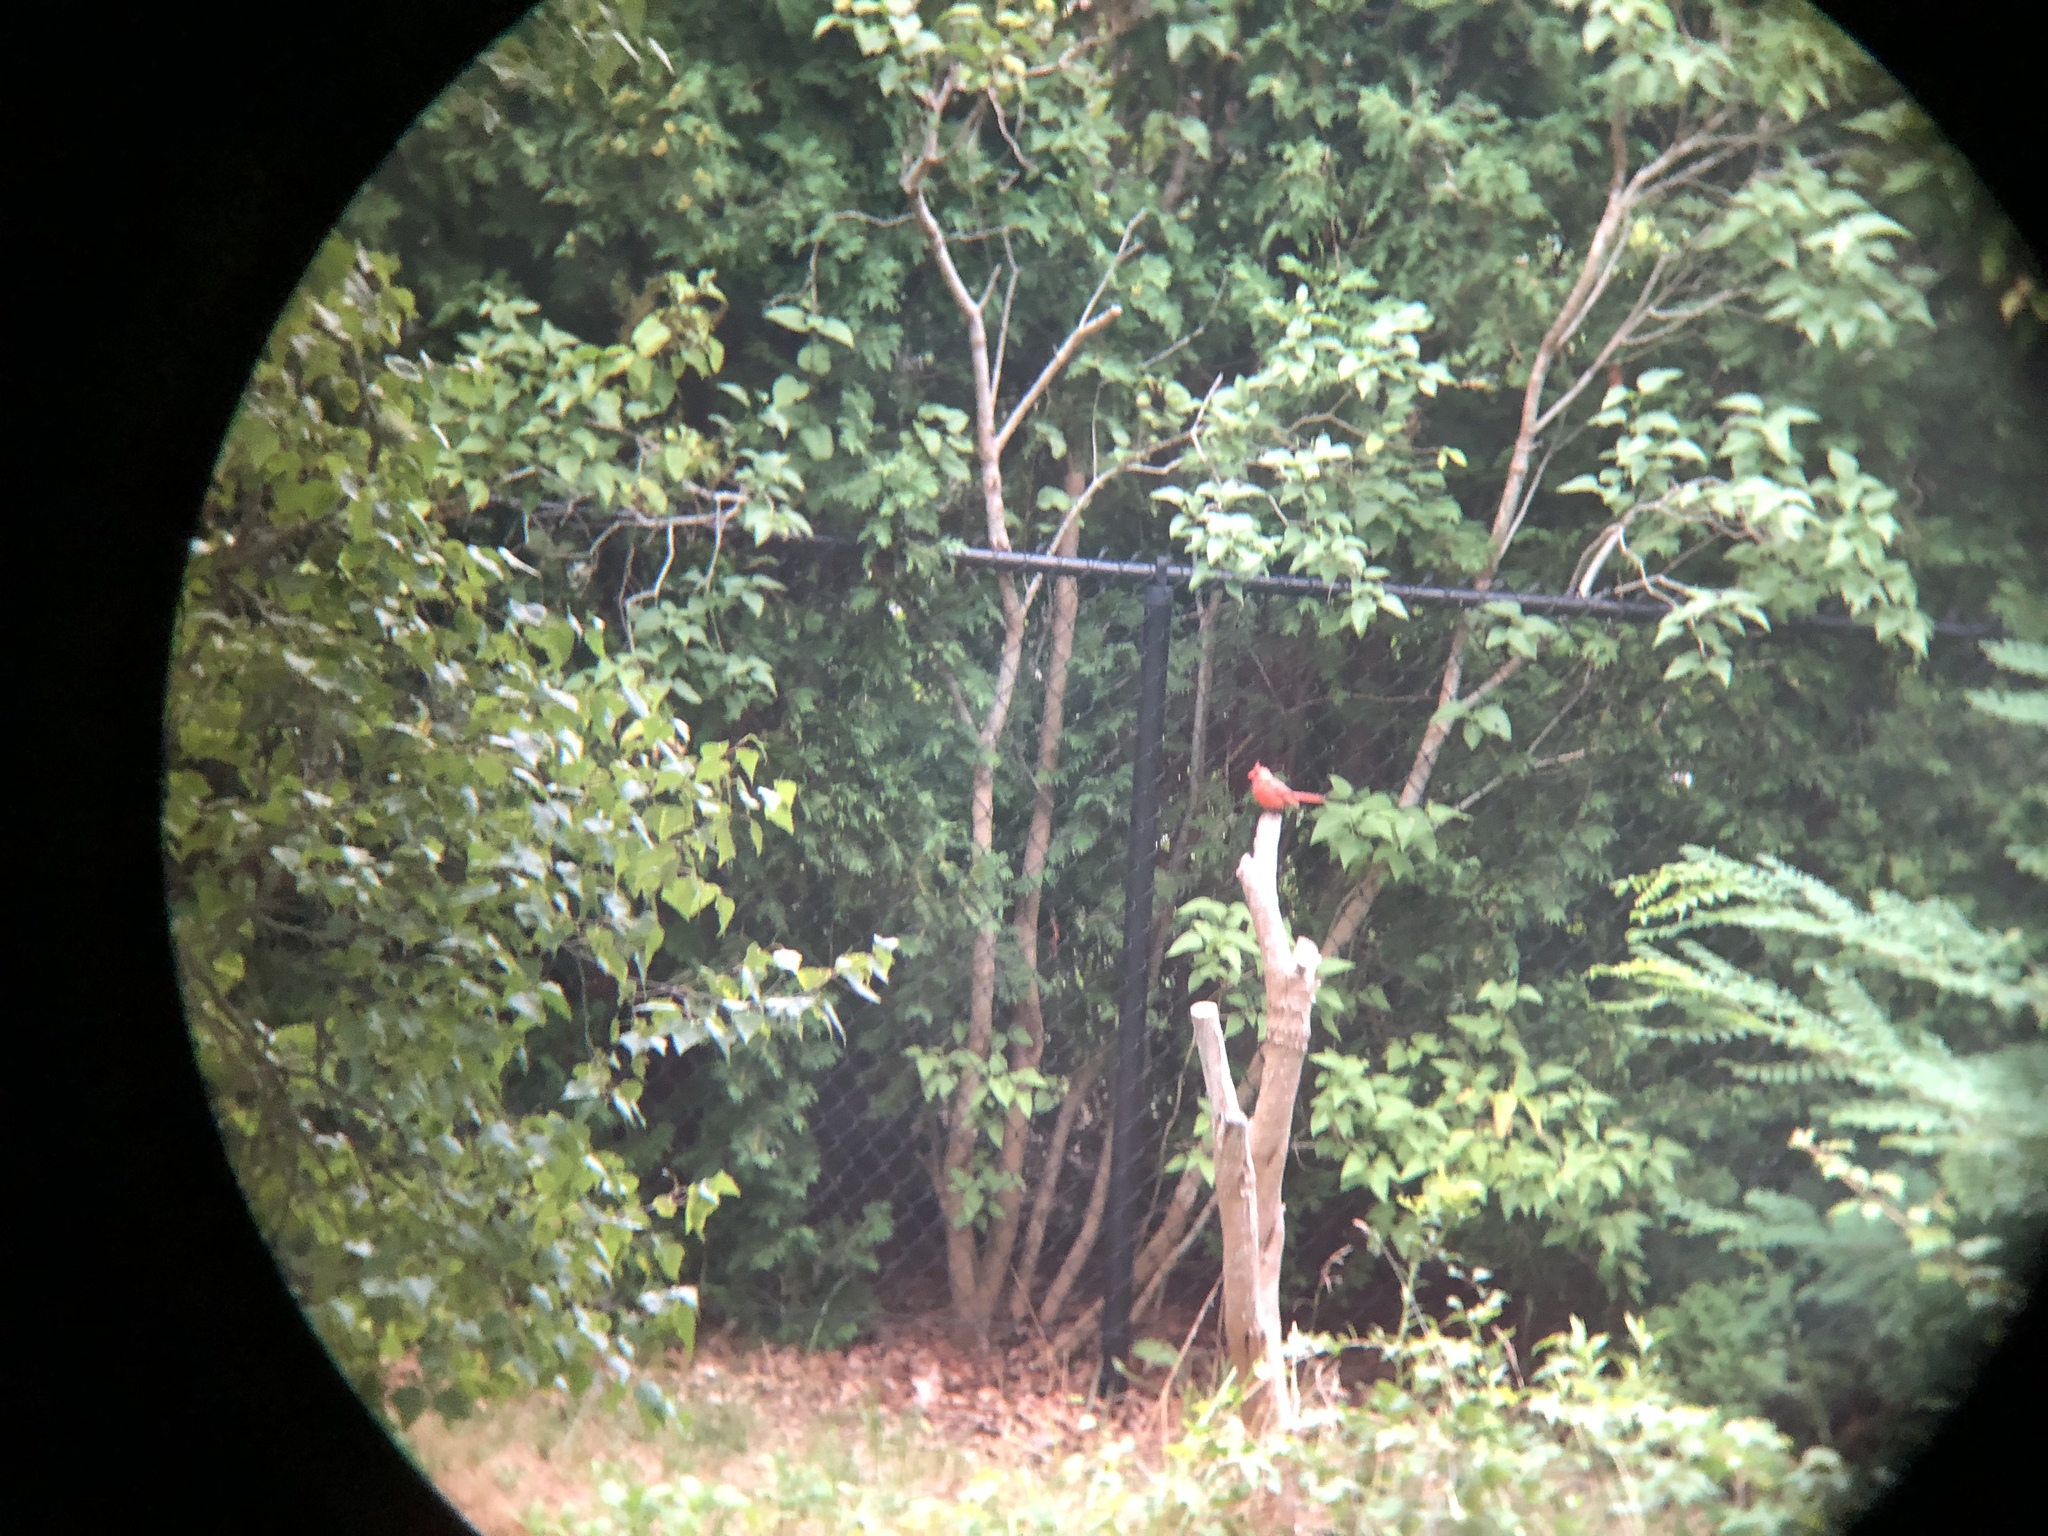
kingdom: Animalia
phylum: Chordata
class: Aves
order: Passeriformes
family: Cardinalidae
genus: Cardinalis
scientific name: Cardinalis cardinalis
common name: Northern cardinal
